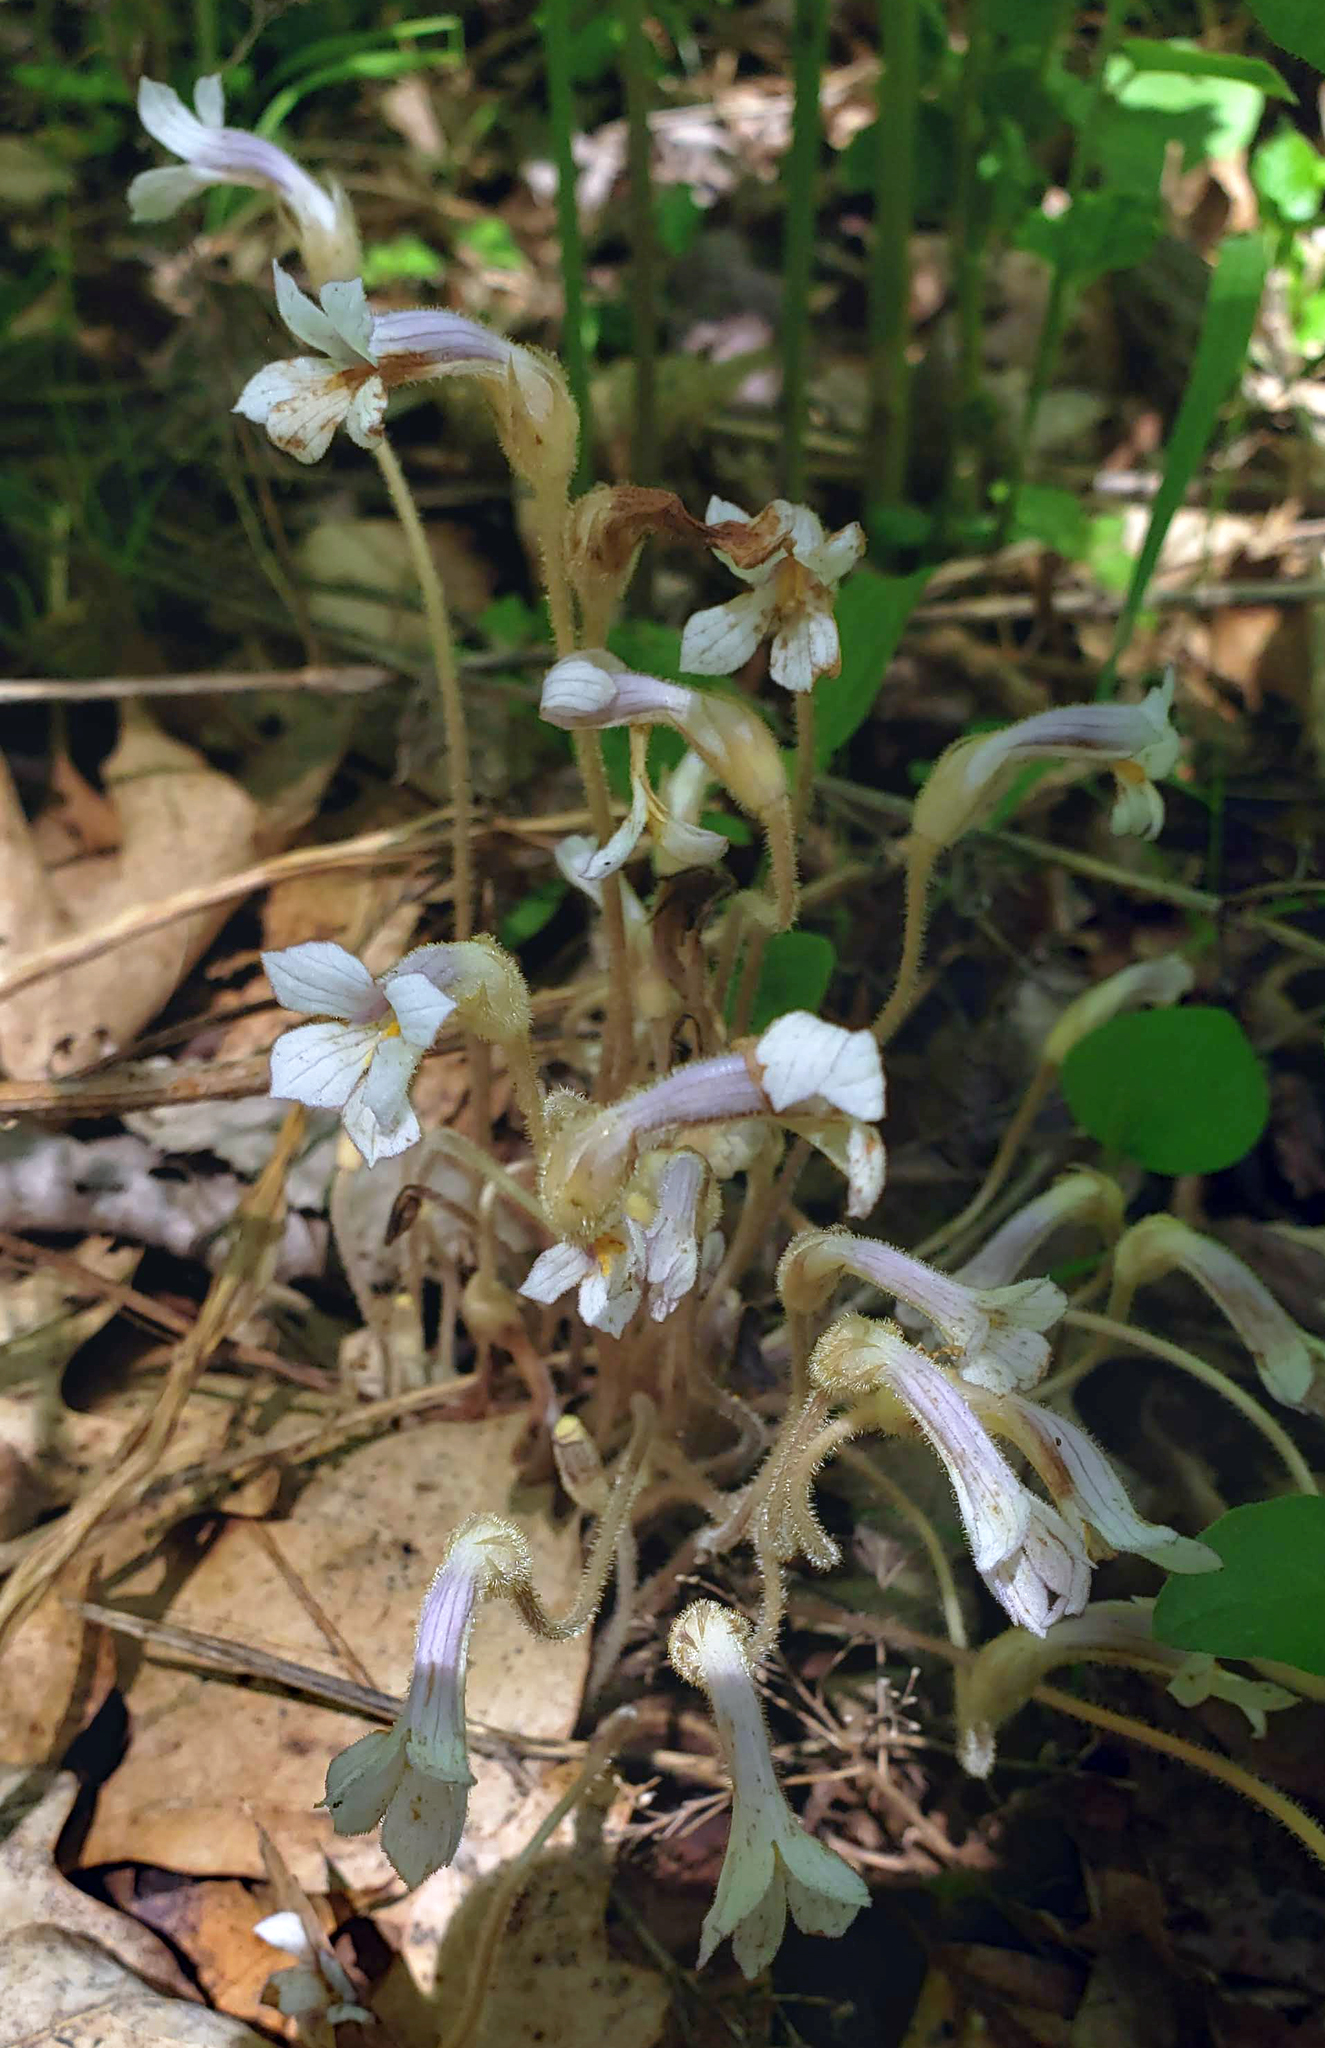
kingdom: Plantae
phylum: Tracheophyta
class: Magnoliopsida
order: Lamiales
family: Orobanchaceae
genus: Aphyllon
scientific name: Aphyllon uniflorum
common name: One-flowered broomrape
